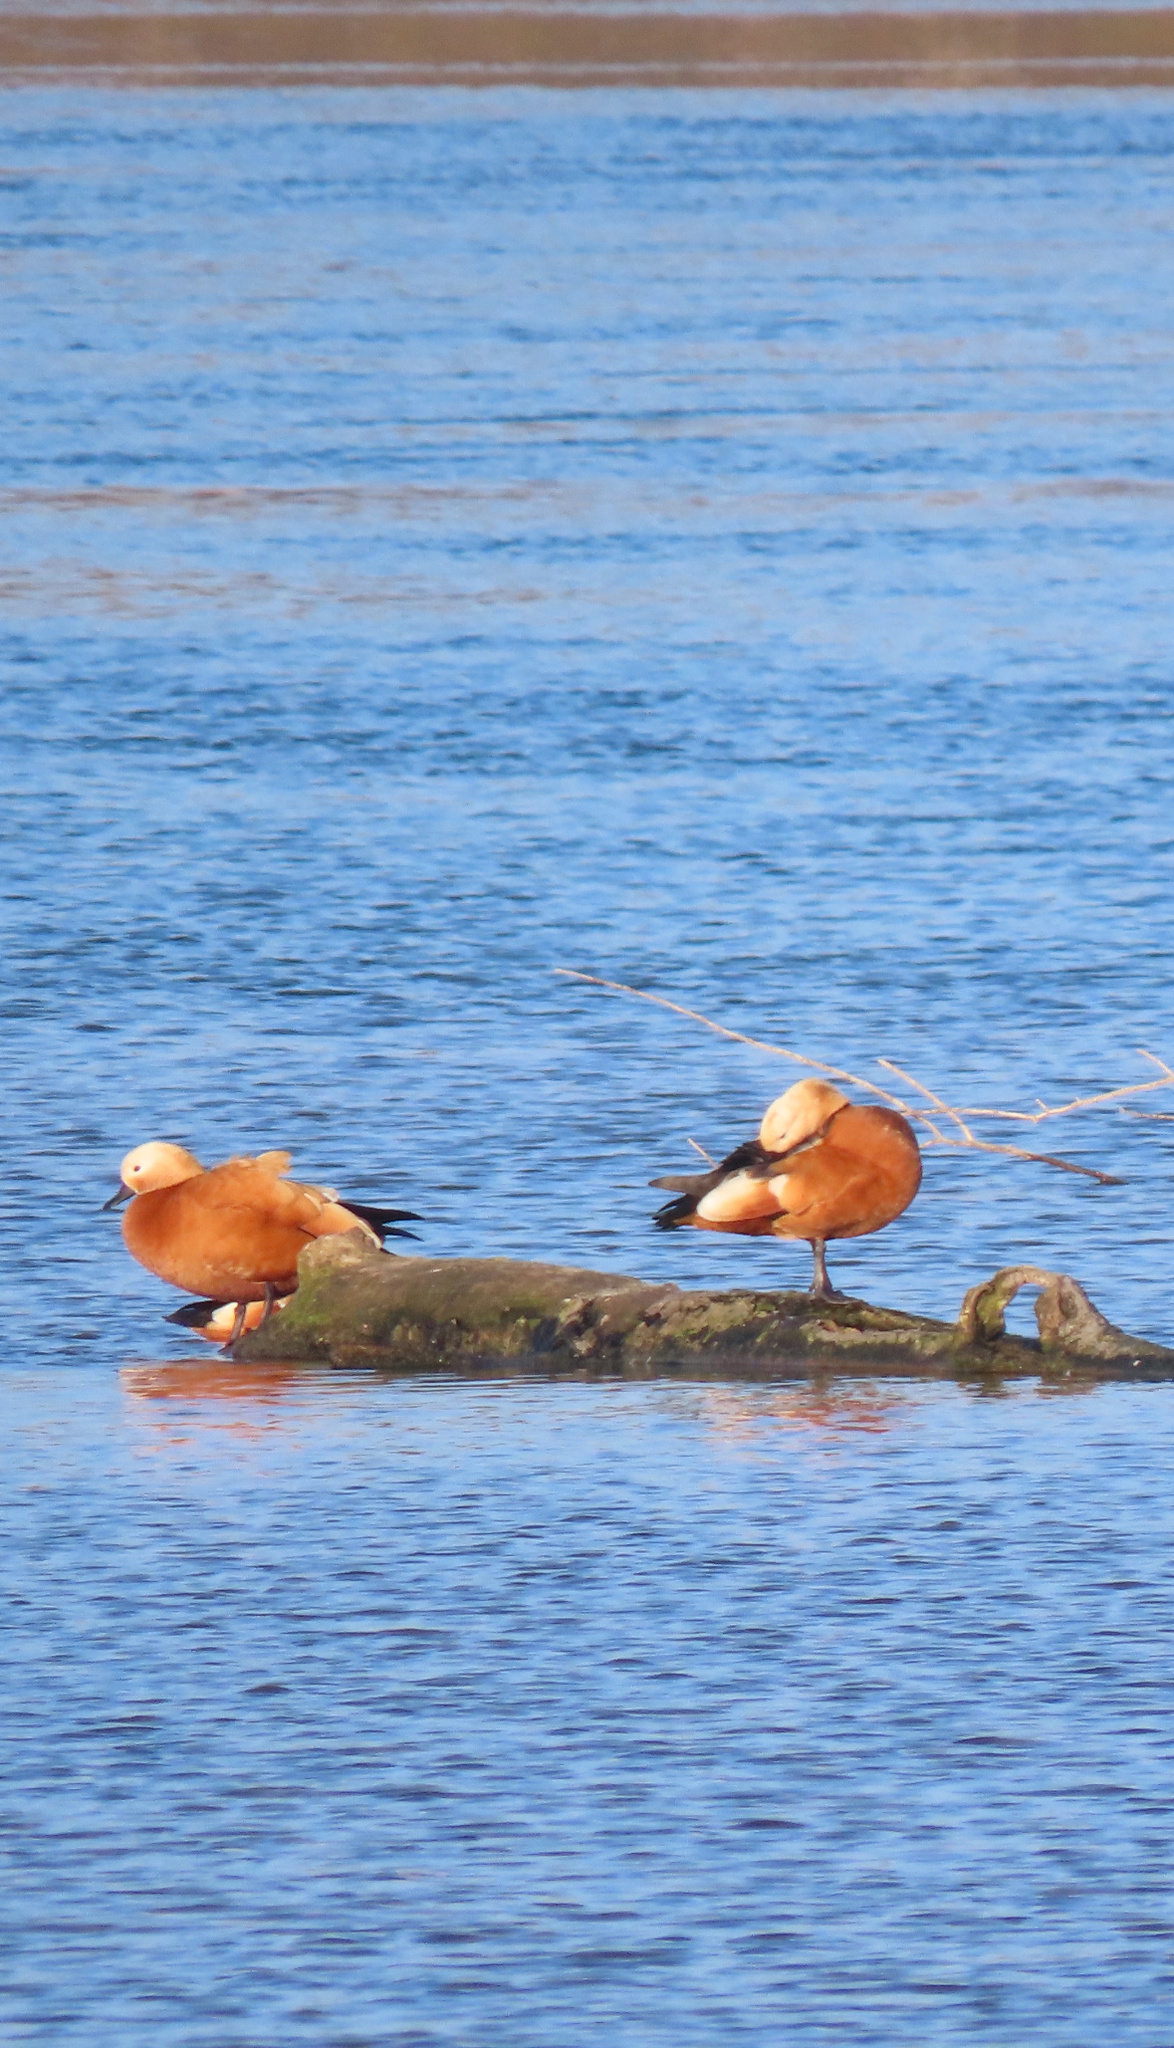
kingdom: Animalia
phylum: Chordata
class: Aves
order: Anseriformes
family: Anatidae
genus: Tadorna
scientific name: Tadorna ferruginea
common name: Ruddy shelduck
